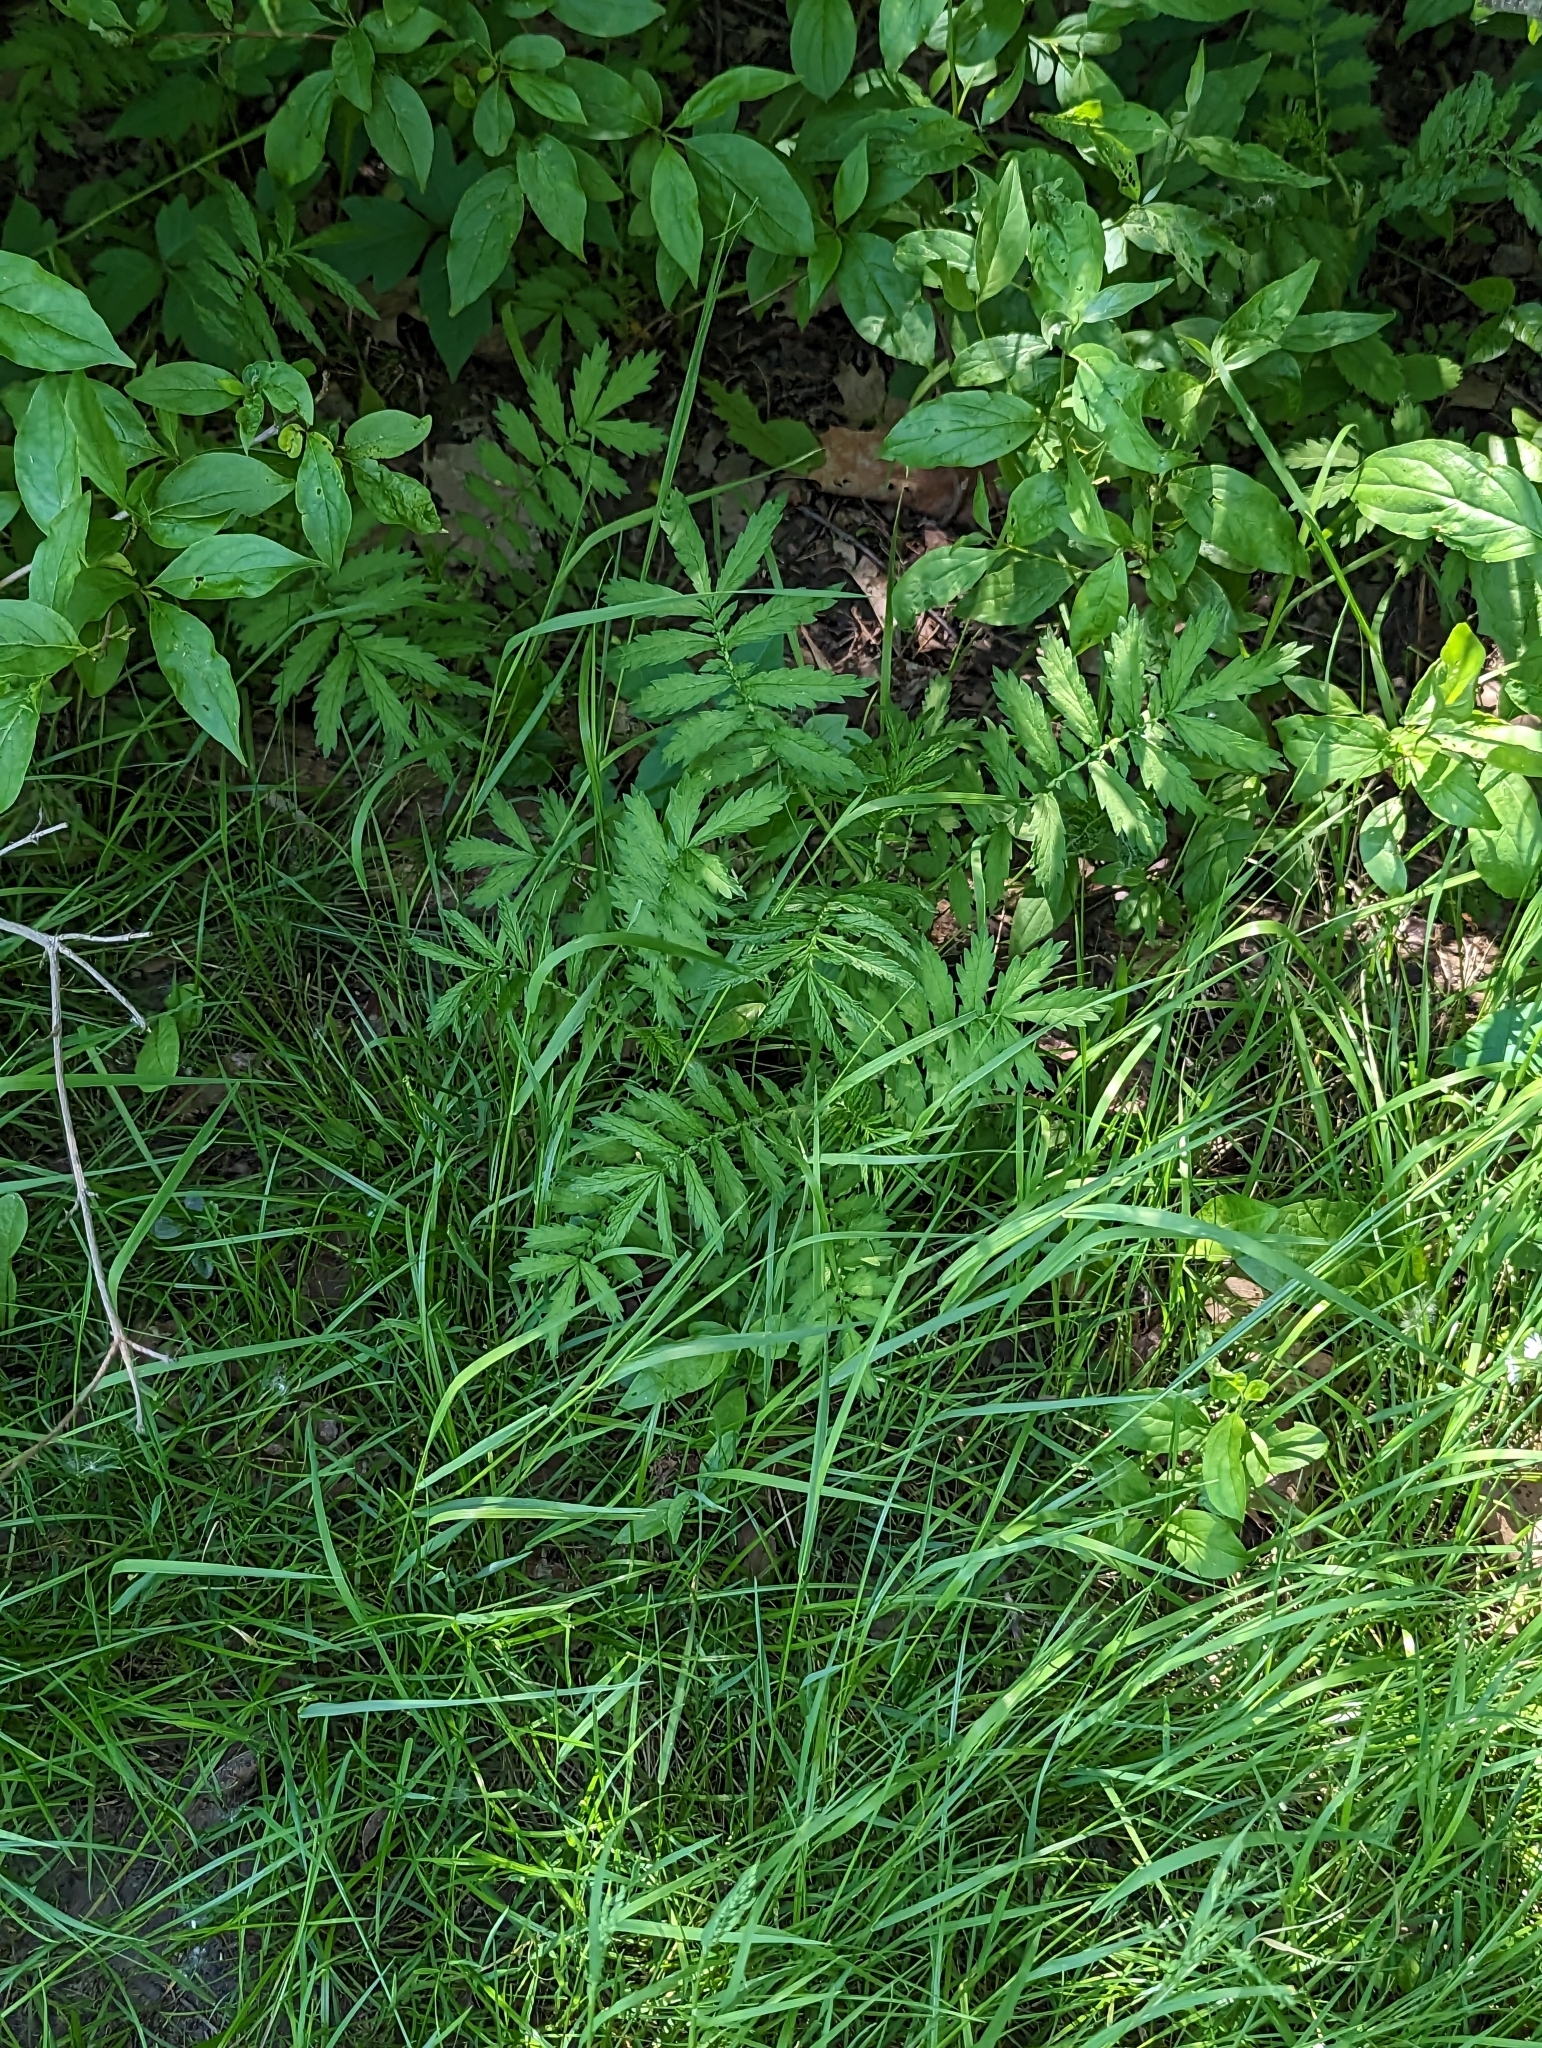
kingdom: Plantae
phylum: Tracheophyta
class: Magnoliopsida
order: Rosales
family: Rosaceae
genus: Agrimonia
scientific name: Agrimonia parviflora
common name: Harvest-lice
